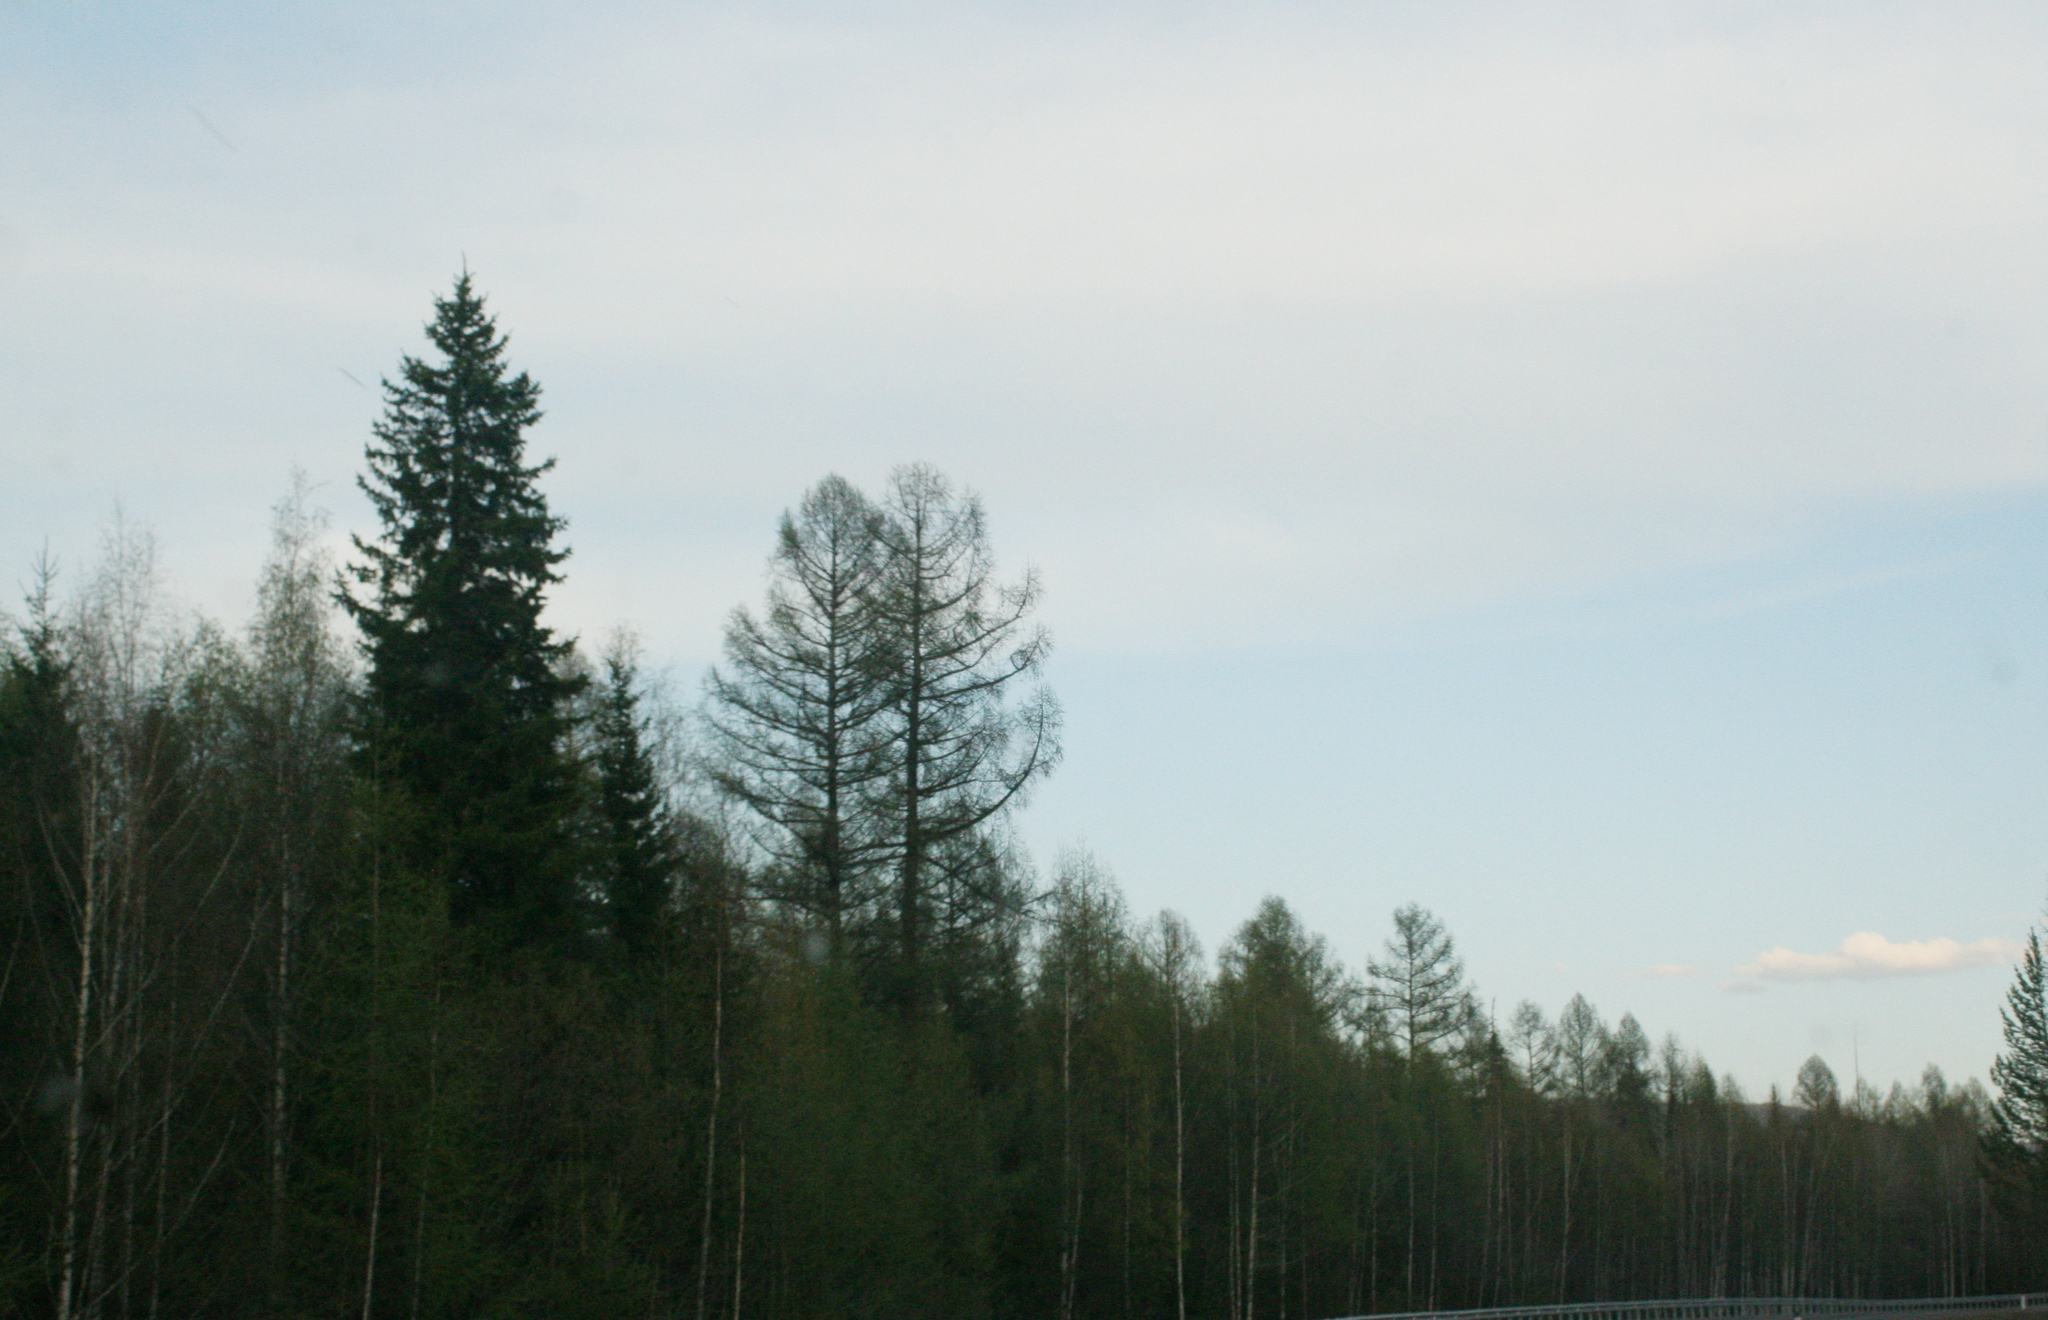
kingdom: Plantae
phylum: Tracheophyta
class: Pinopsida
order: Pinales
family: Pinaceae
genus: Larix
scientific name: Larix sibirica
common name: Siberian larch
